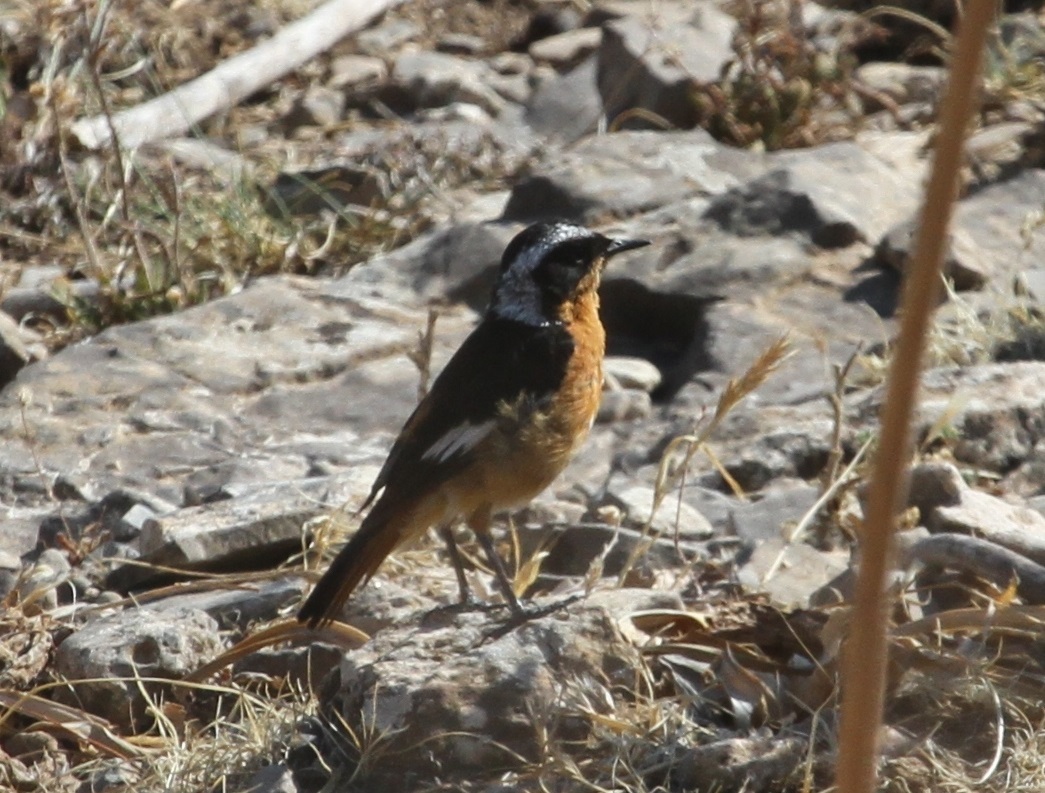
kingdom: Animalia
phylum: Chordata
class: Aves
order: Passeriformes
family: Muscicapidae
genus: Phoenicurus
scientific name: Phoenicurus moussieri
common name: Moussier's redstart
